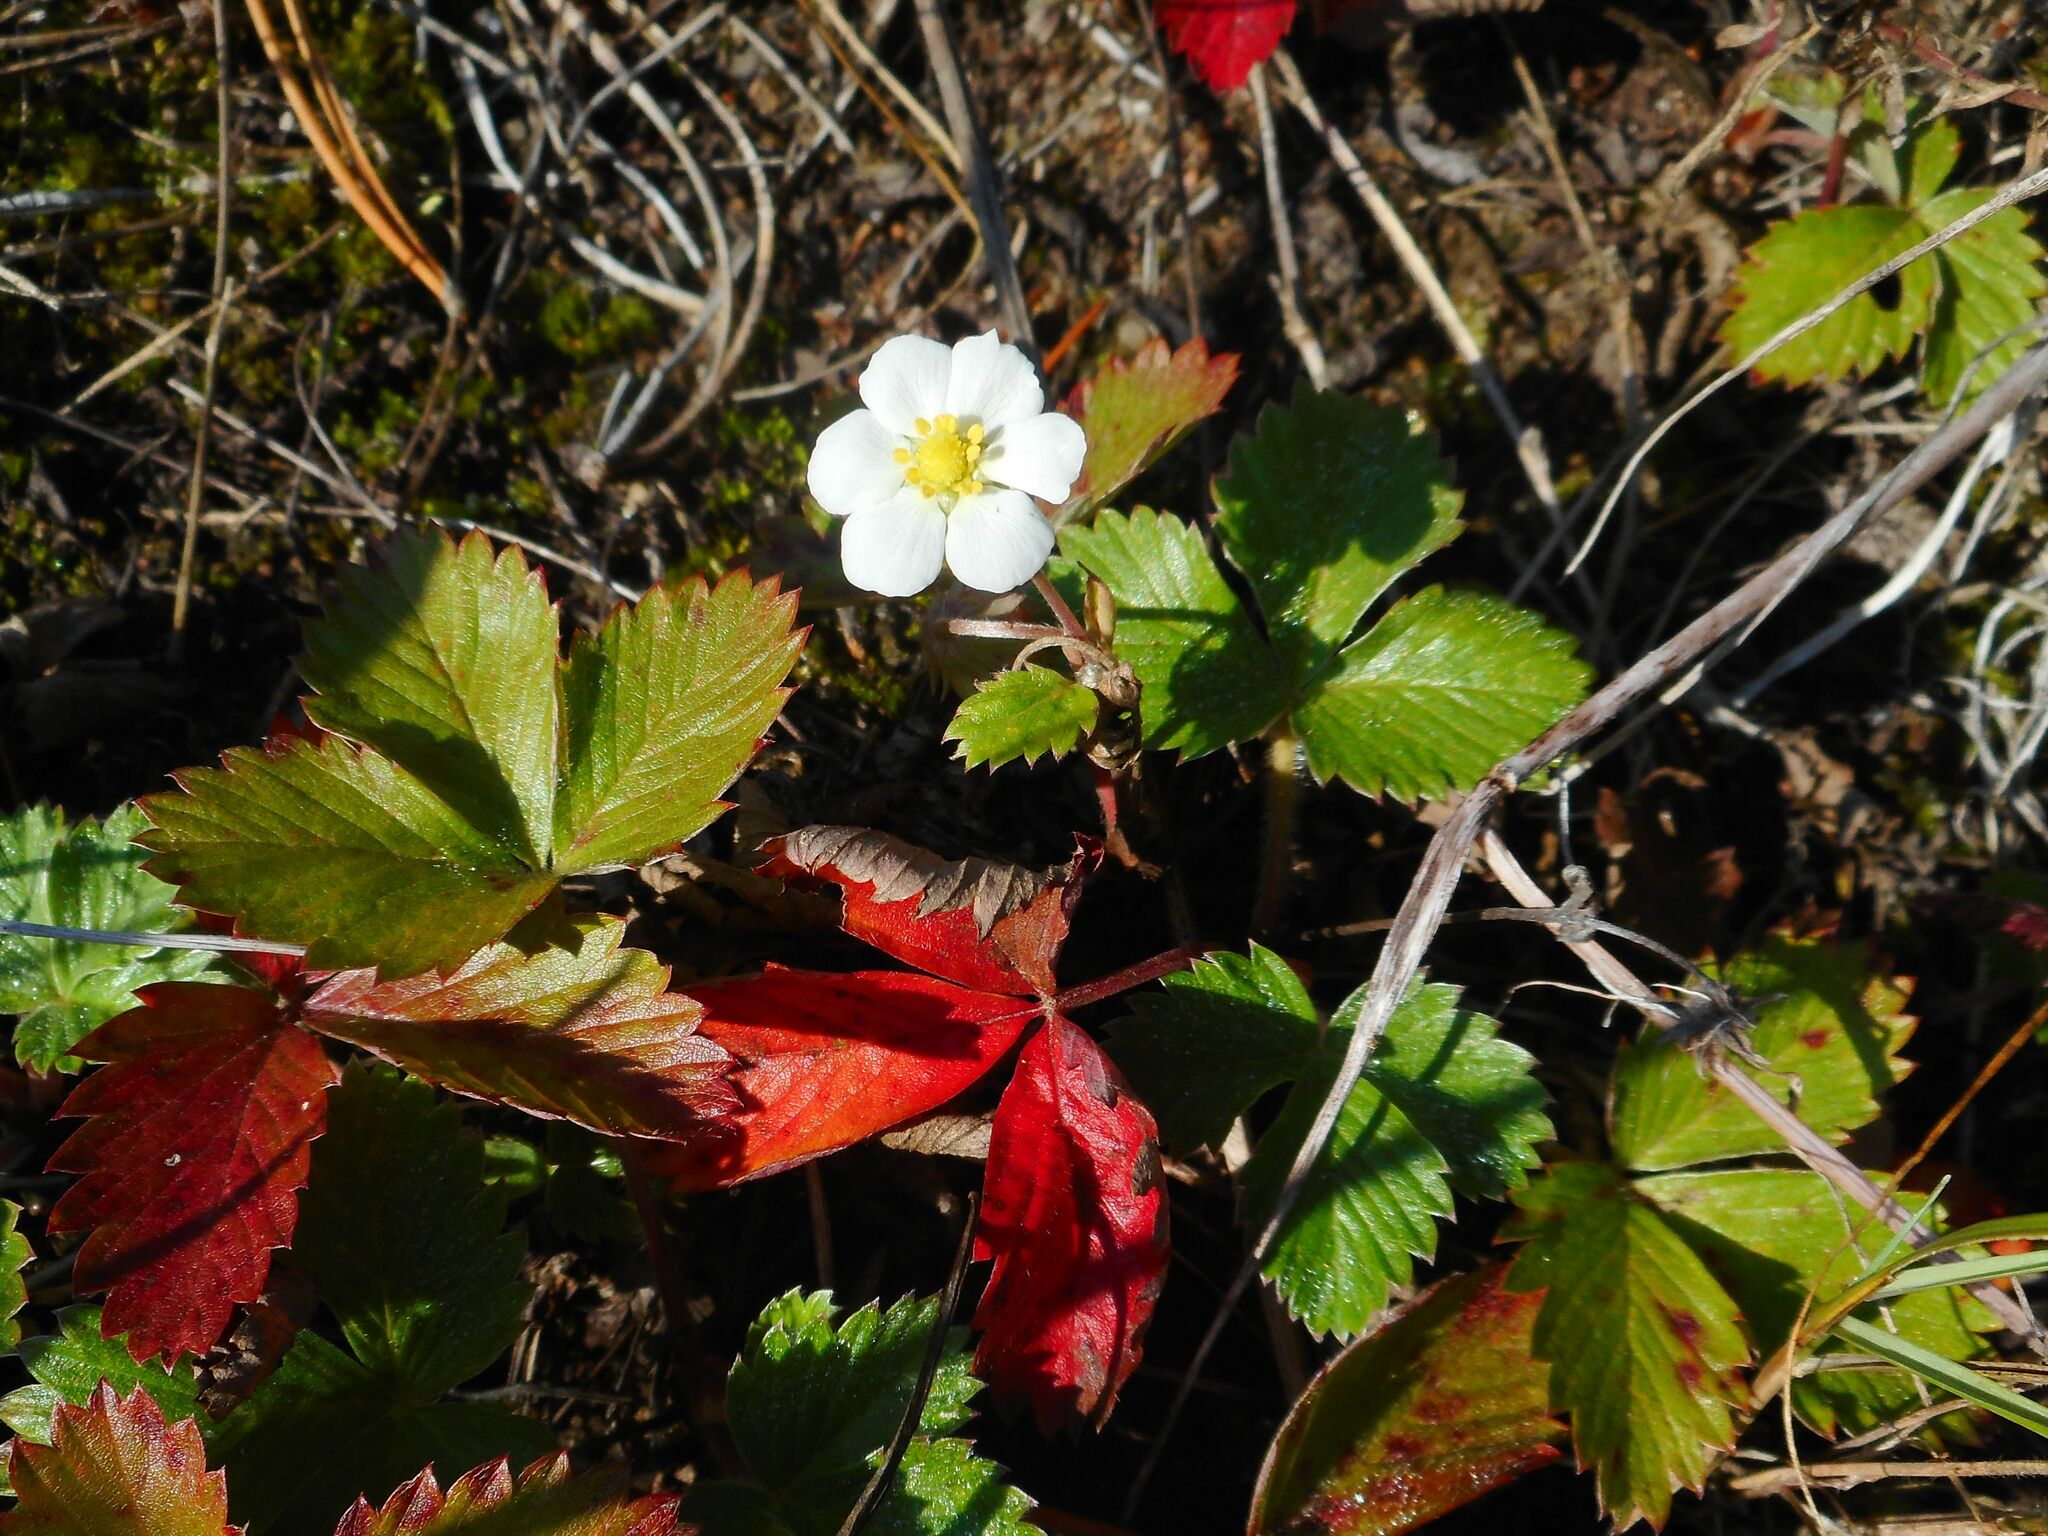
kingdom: Plantae
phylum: Tracheophyta
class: Magnoliopsida
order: Rosales
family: Rosaceae
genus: Fragaria
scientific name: Fragaria vesca
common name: Wild strawberry
